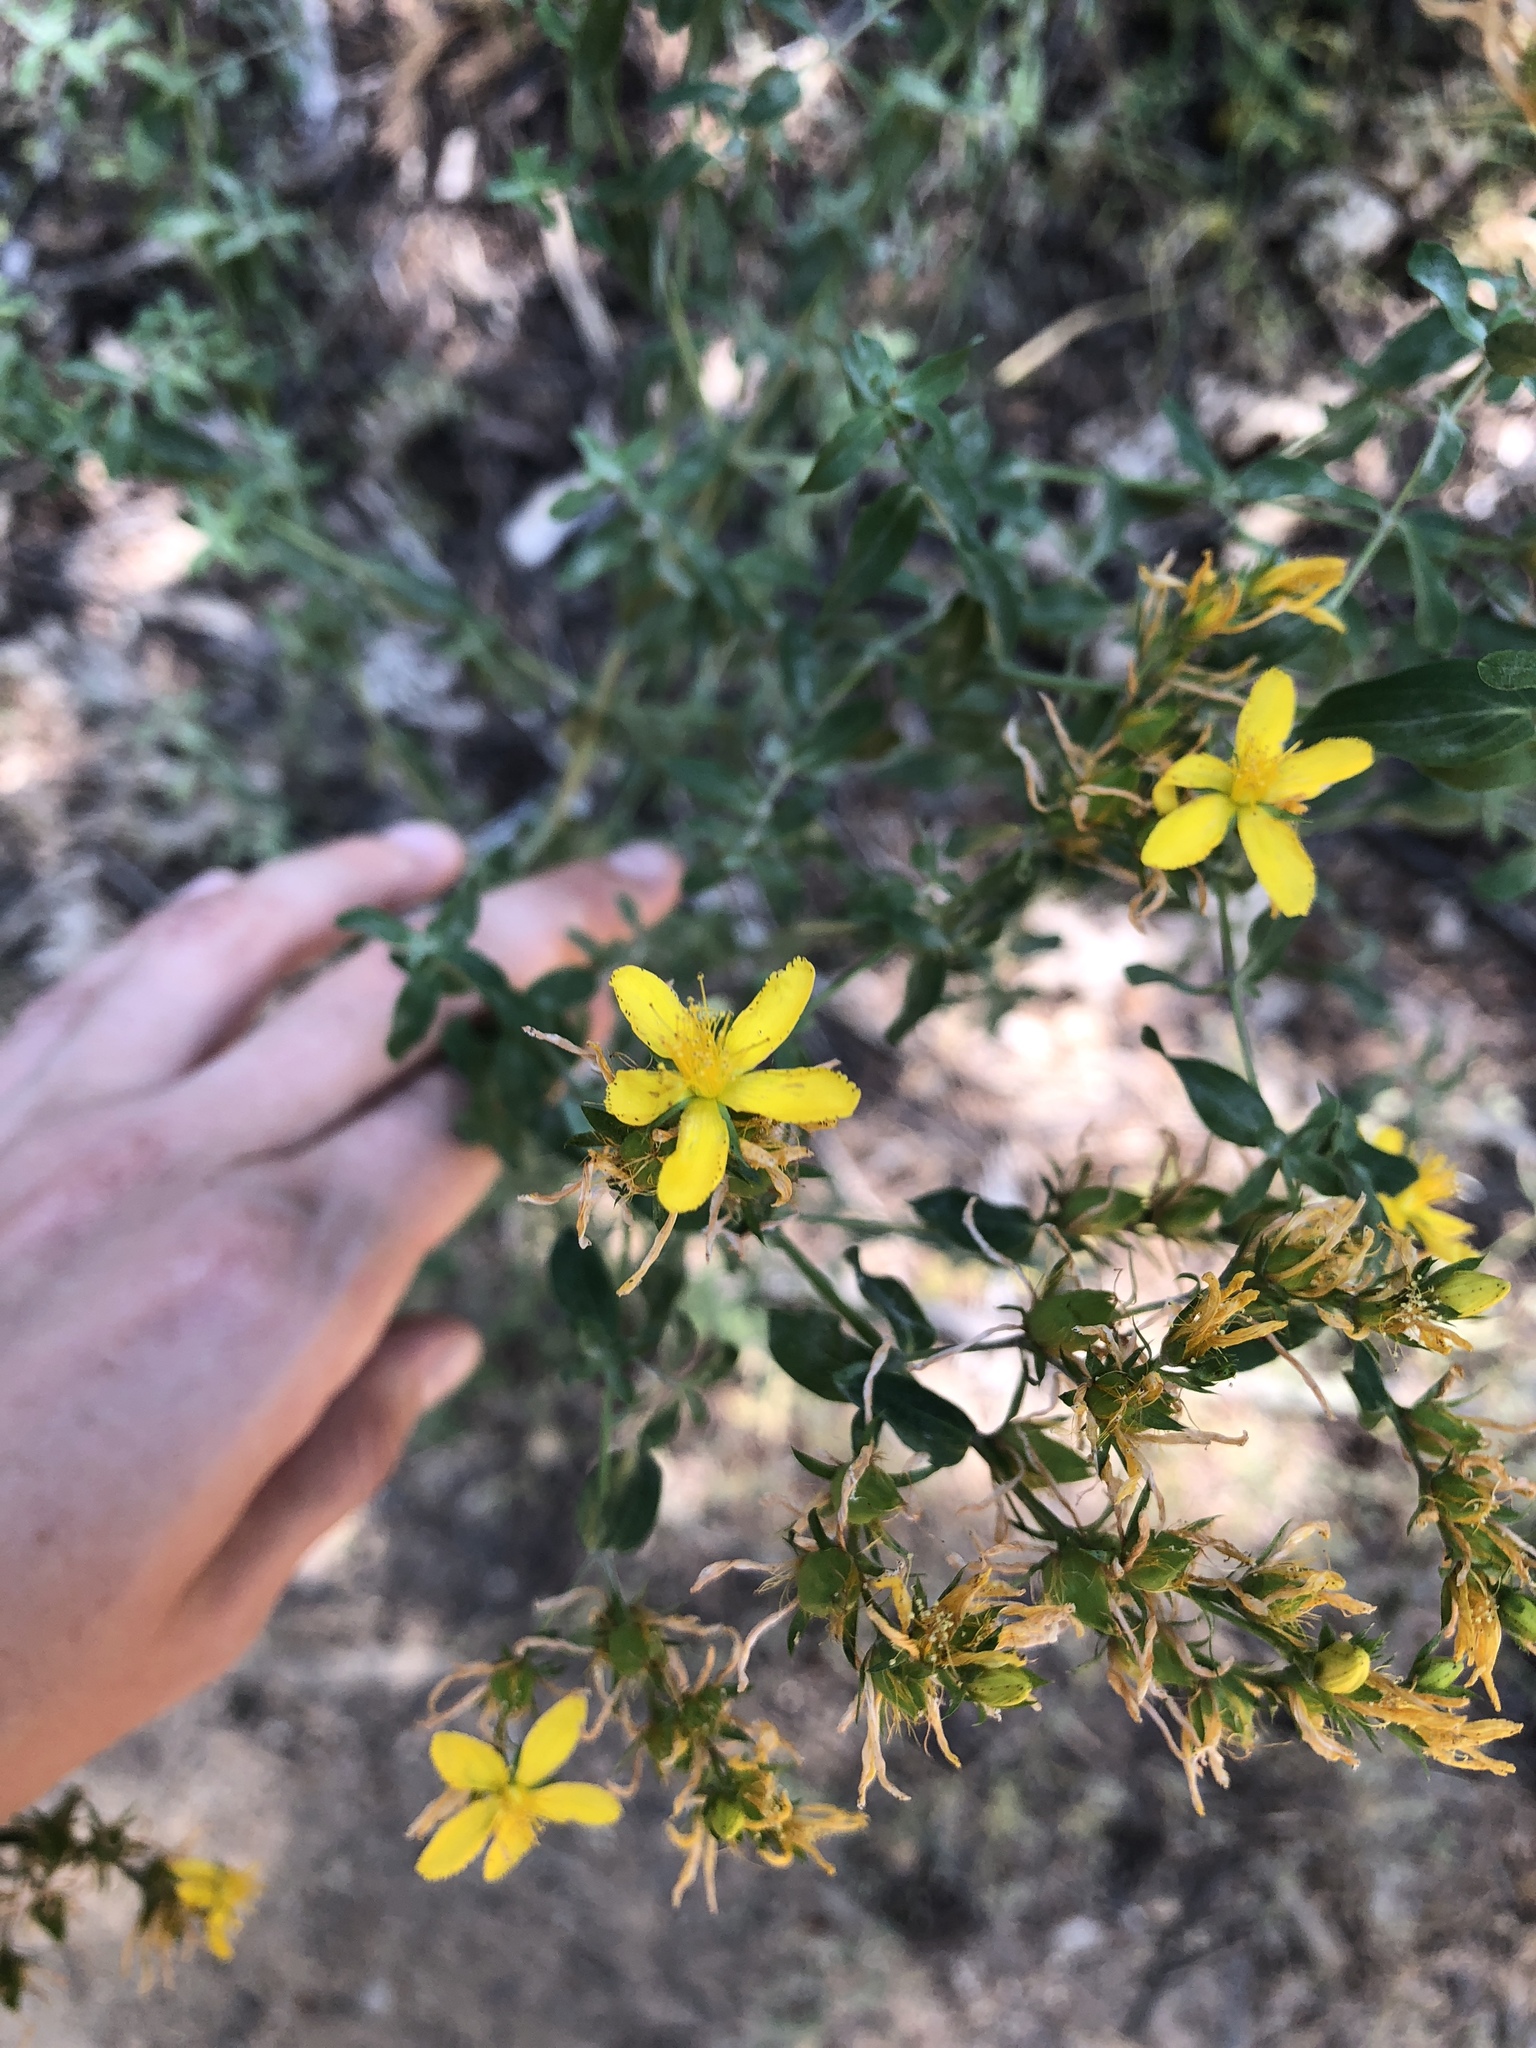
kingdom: Plantae
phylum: Tracheophyta
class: Magnoliopsida
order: Malpighiales
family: Hypericaceae
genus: Hypericum
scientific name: Hypericum perforatum
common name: Common st. johnswort
